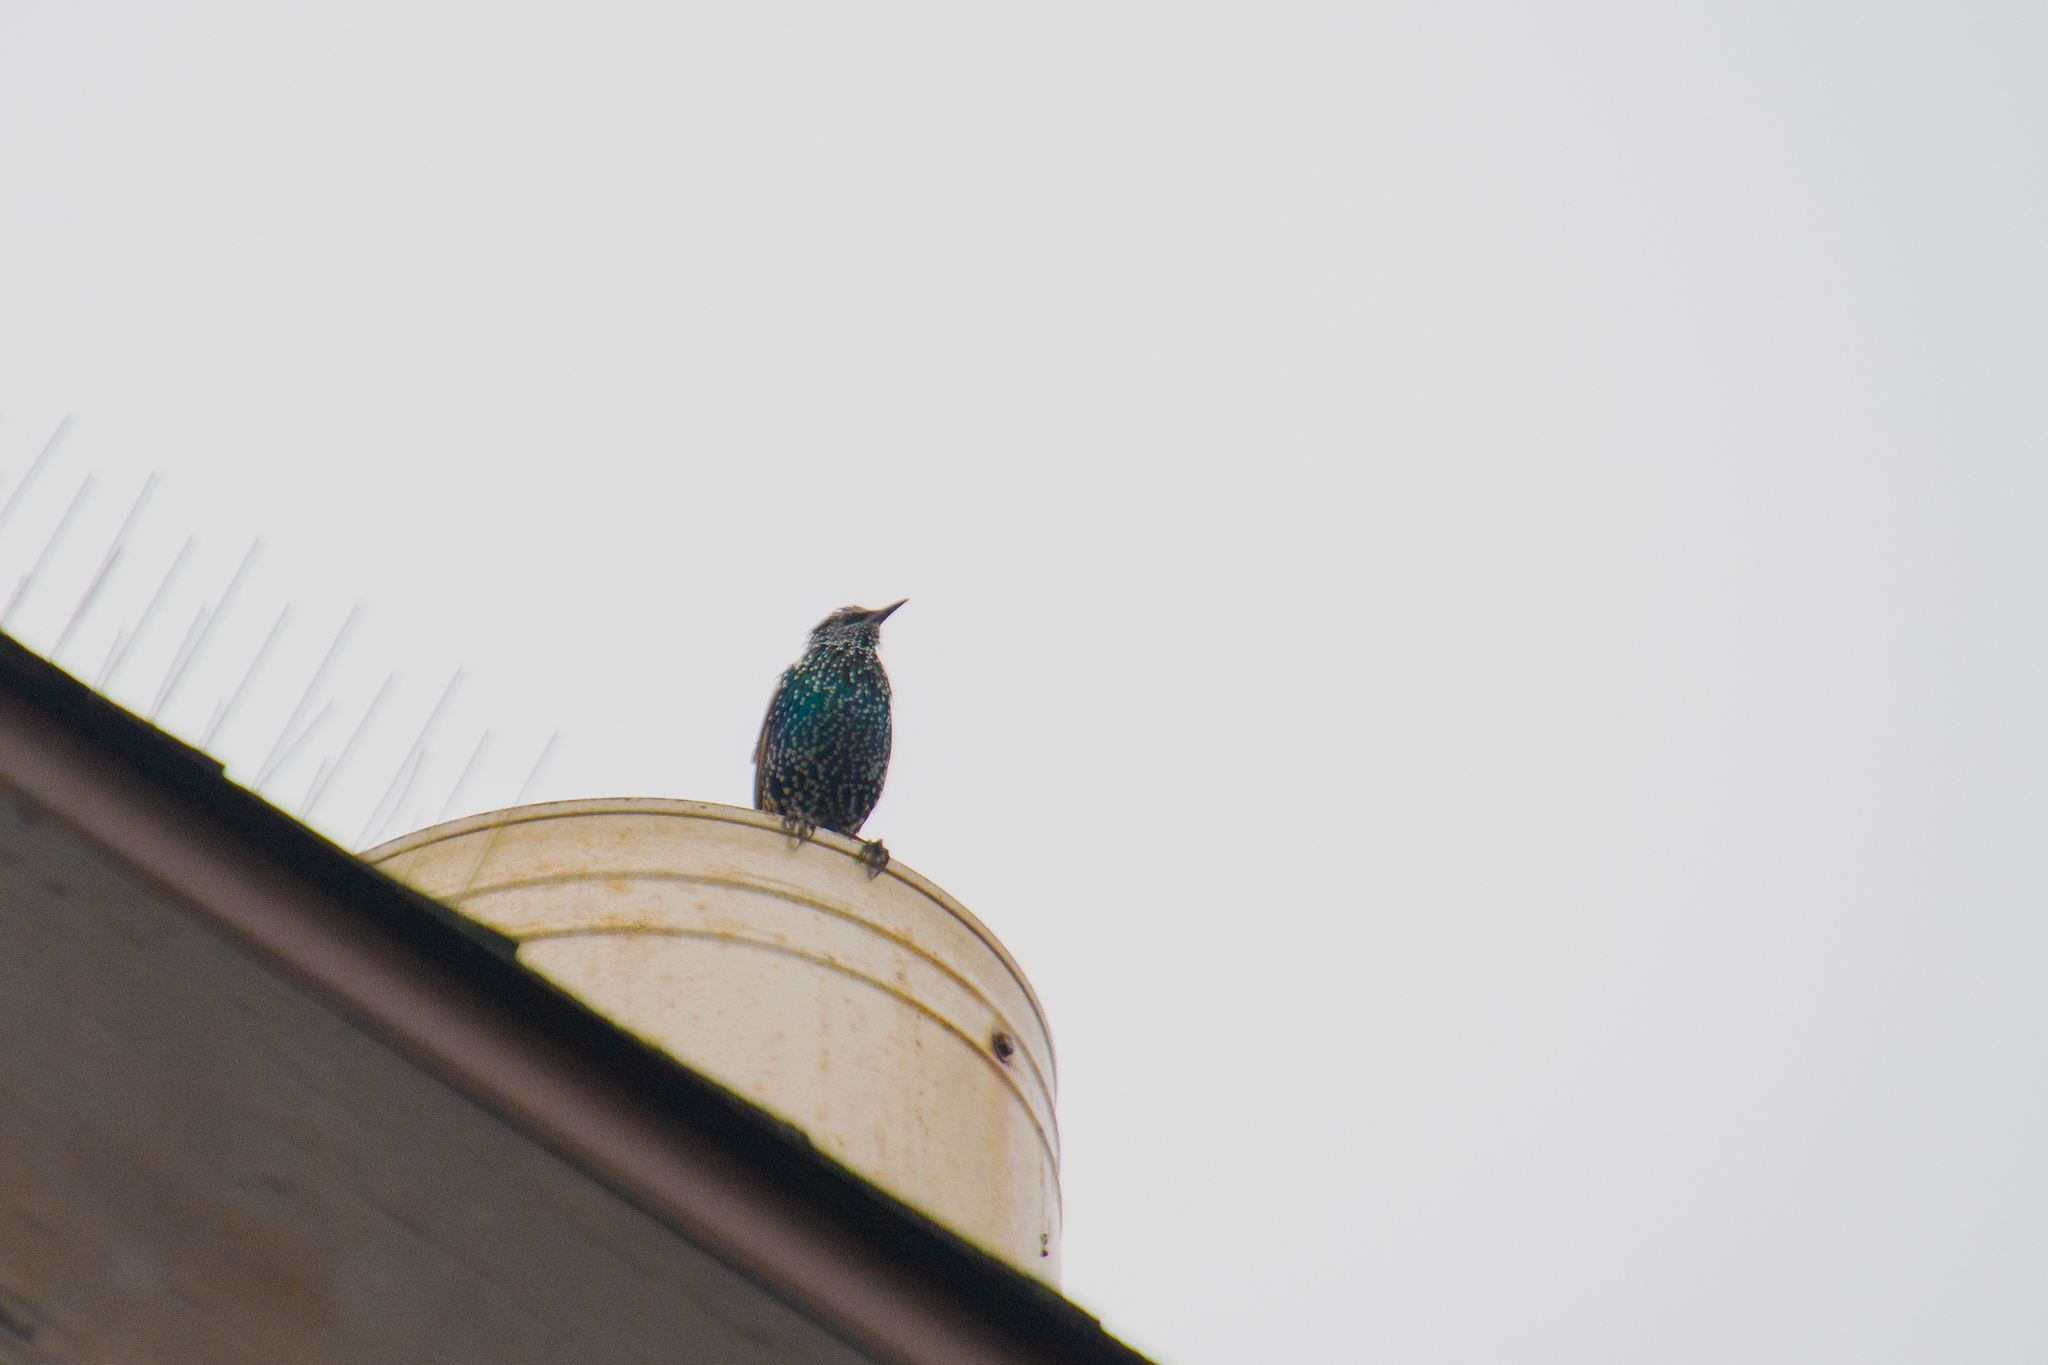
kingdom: Animalia
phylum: Chordata
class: Aves
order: Passeriformes
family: Sturnidae
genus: Sturnus
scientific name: Sturnus vulgaris
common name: Common starling
